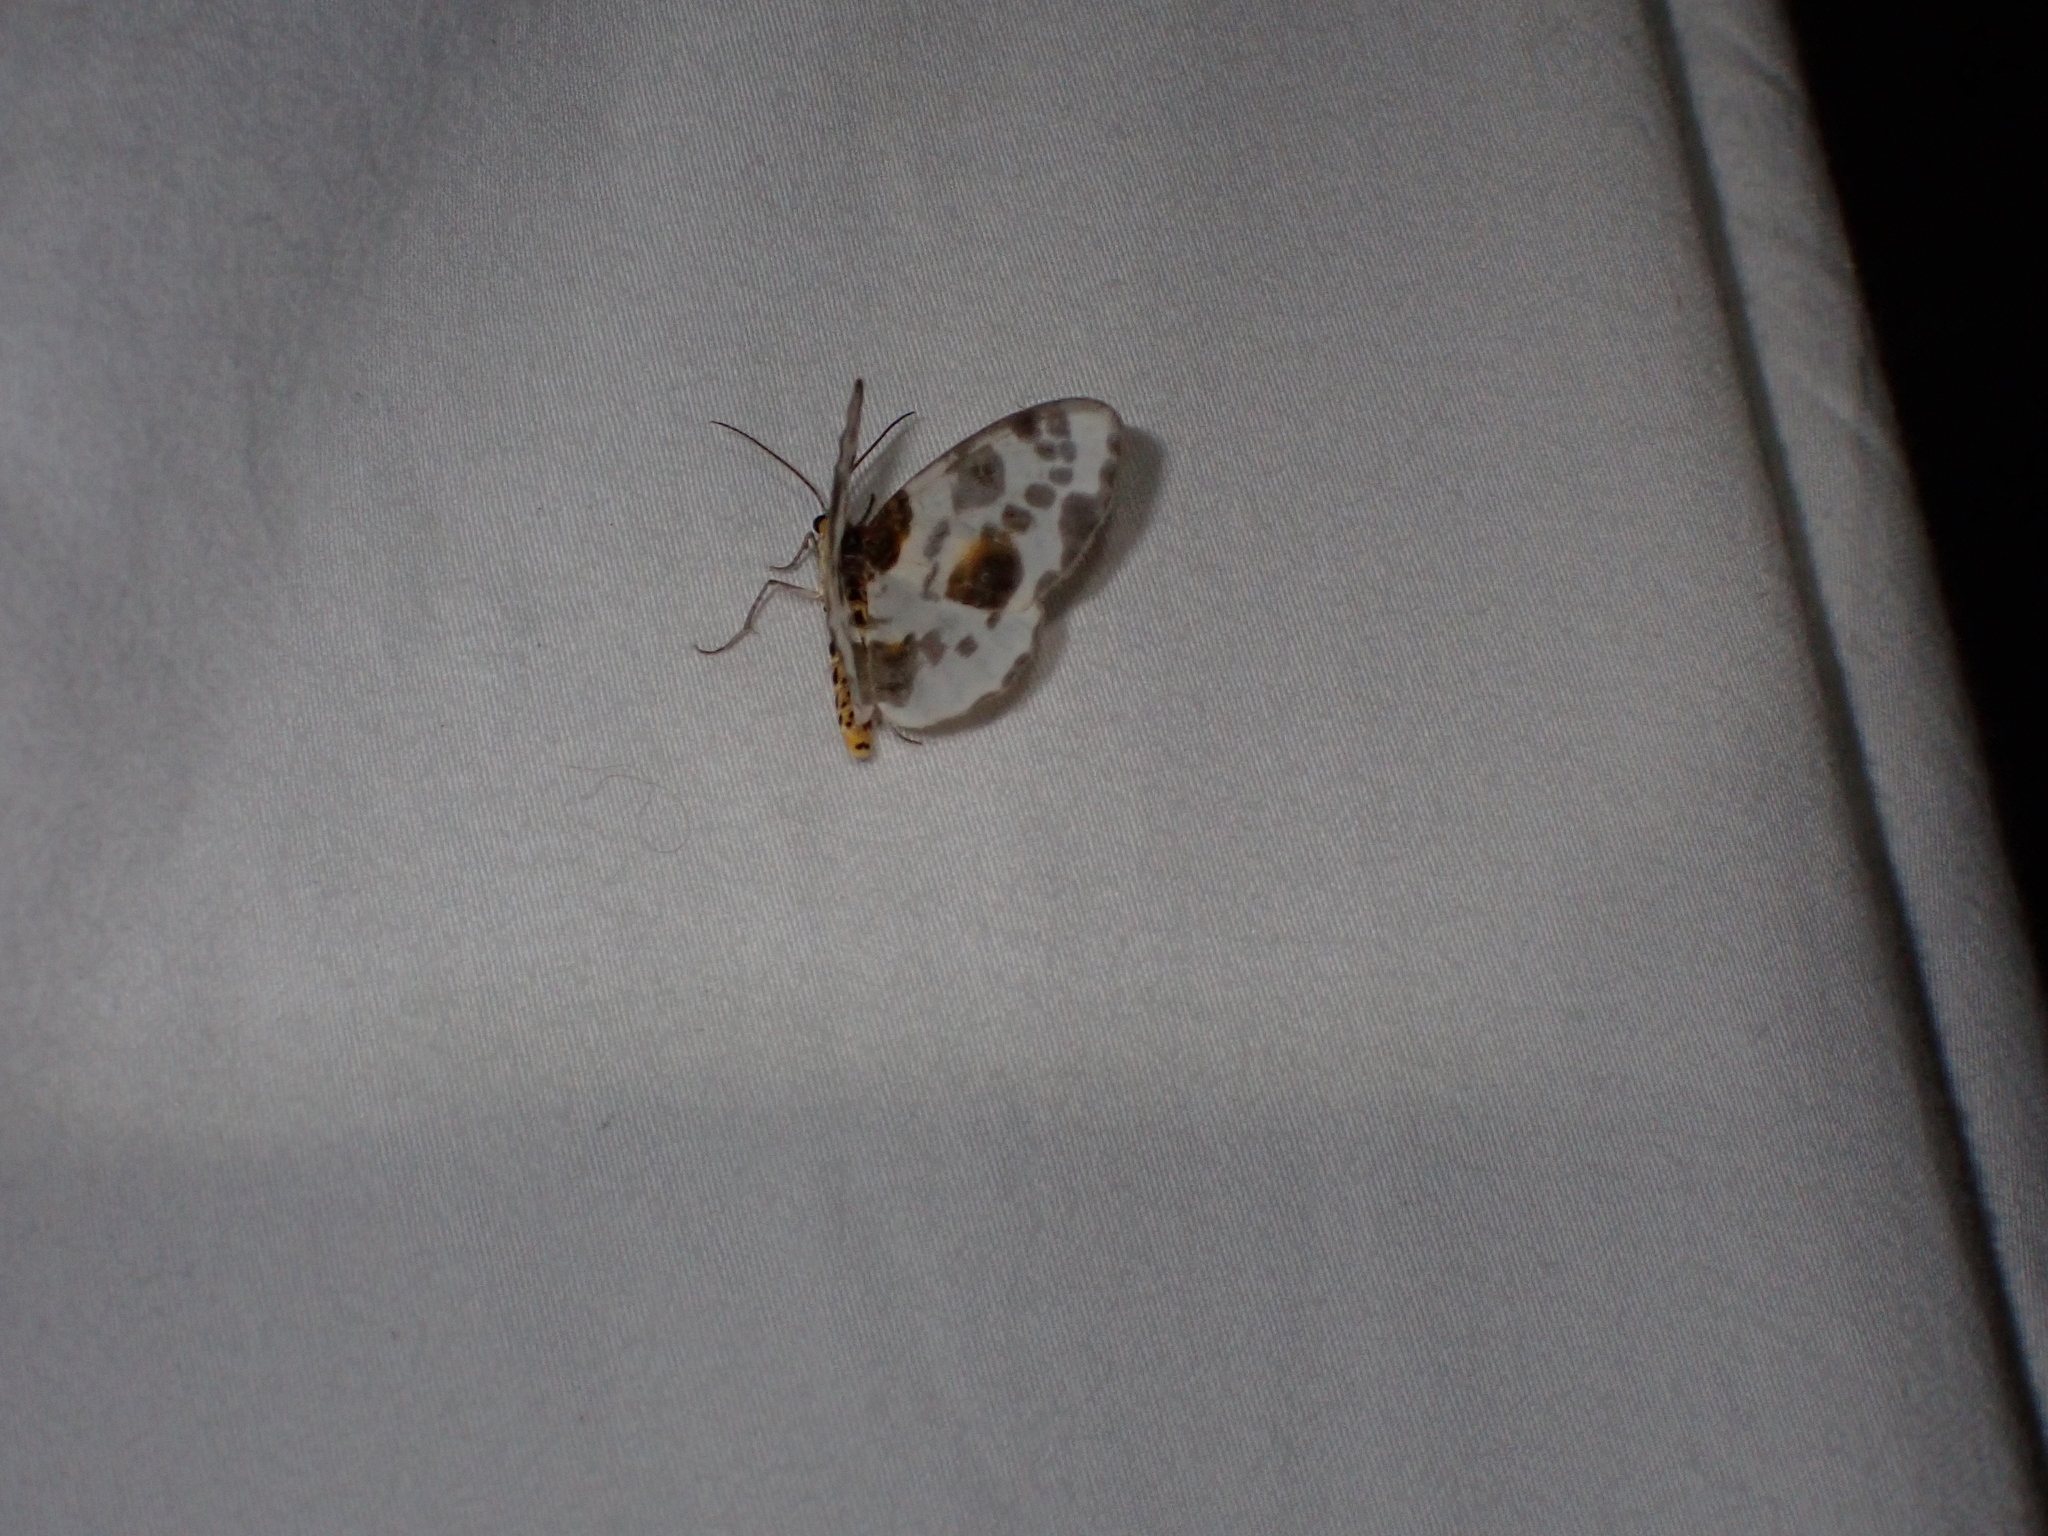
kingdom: Animalia
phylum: Arthropoda
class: Insecta
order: Lepidoptera
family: Geometridae
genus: Abraxas
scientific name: Abraxas sylvata
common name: Clouded magpie
